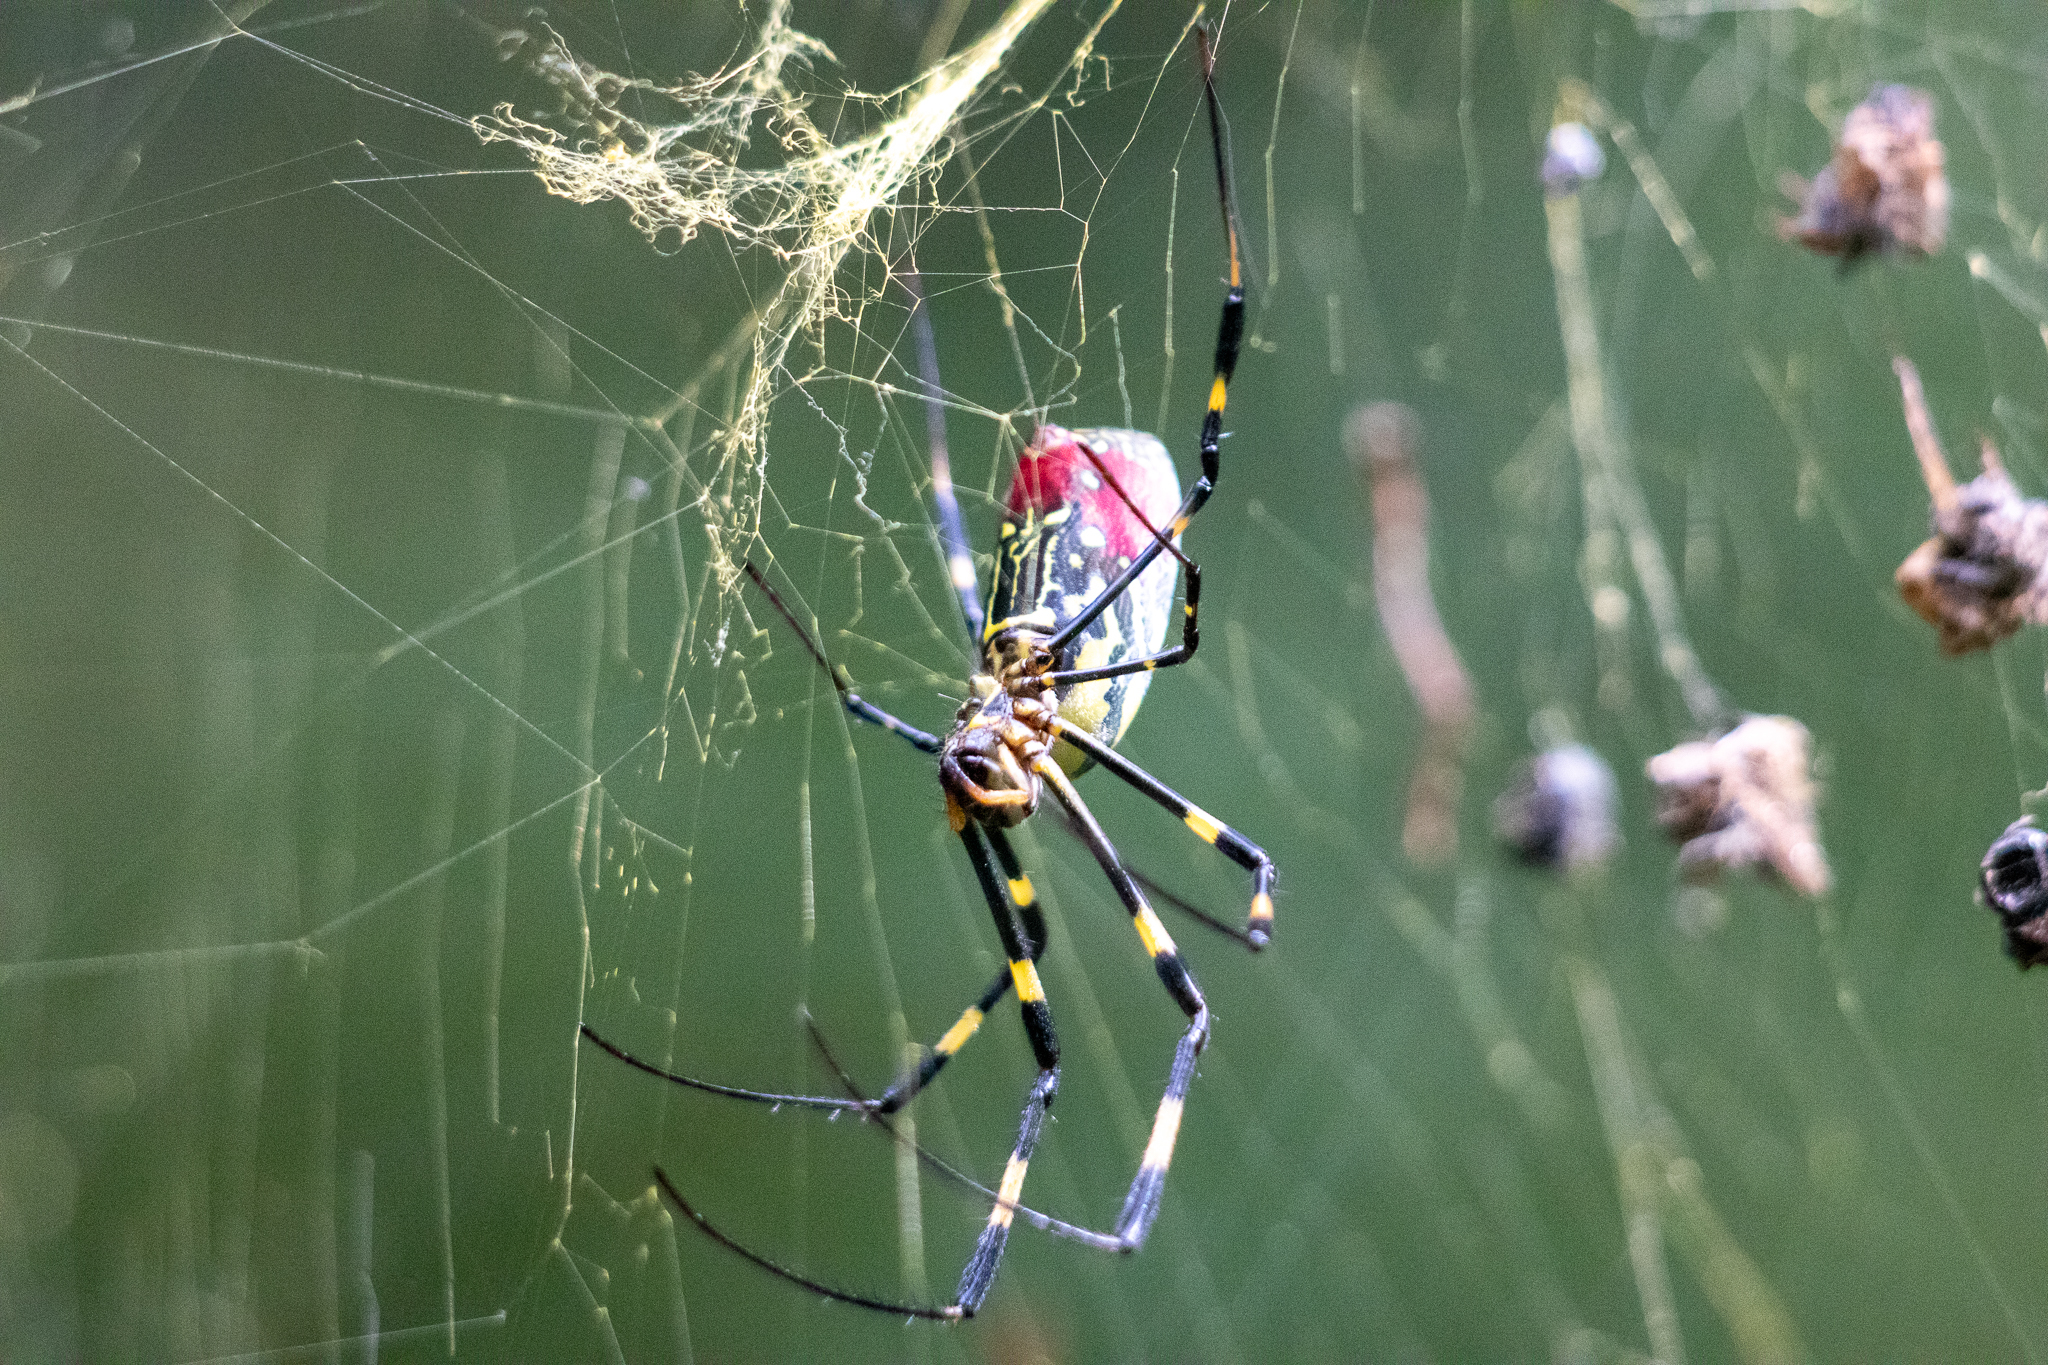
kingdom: Animalia
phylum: Arthropoda
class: Arachnida
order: Araneae
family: Araneidae
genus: Trichonephila
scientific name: Trichonephila clavata
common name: Jorō spider
